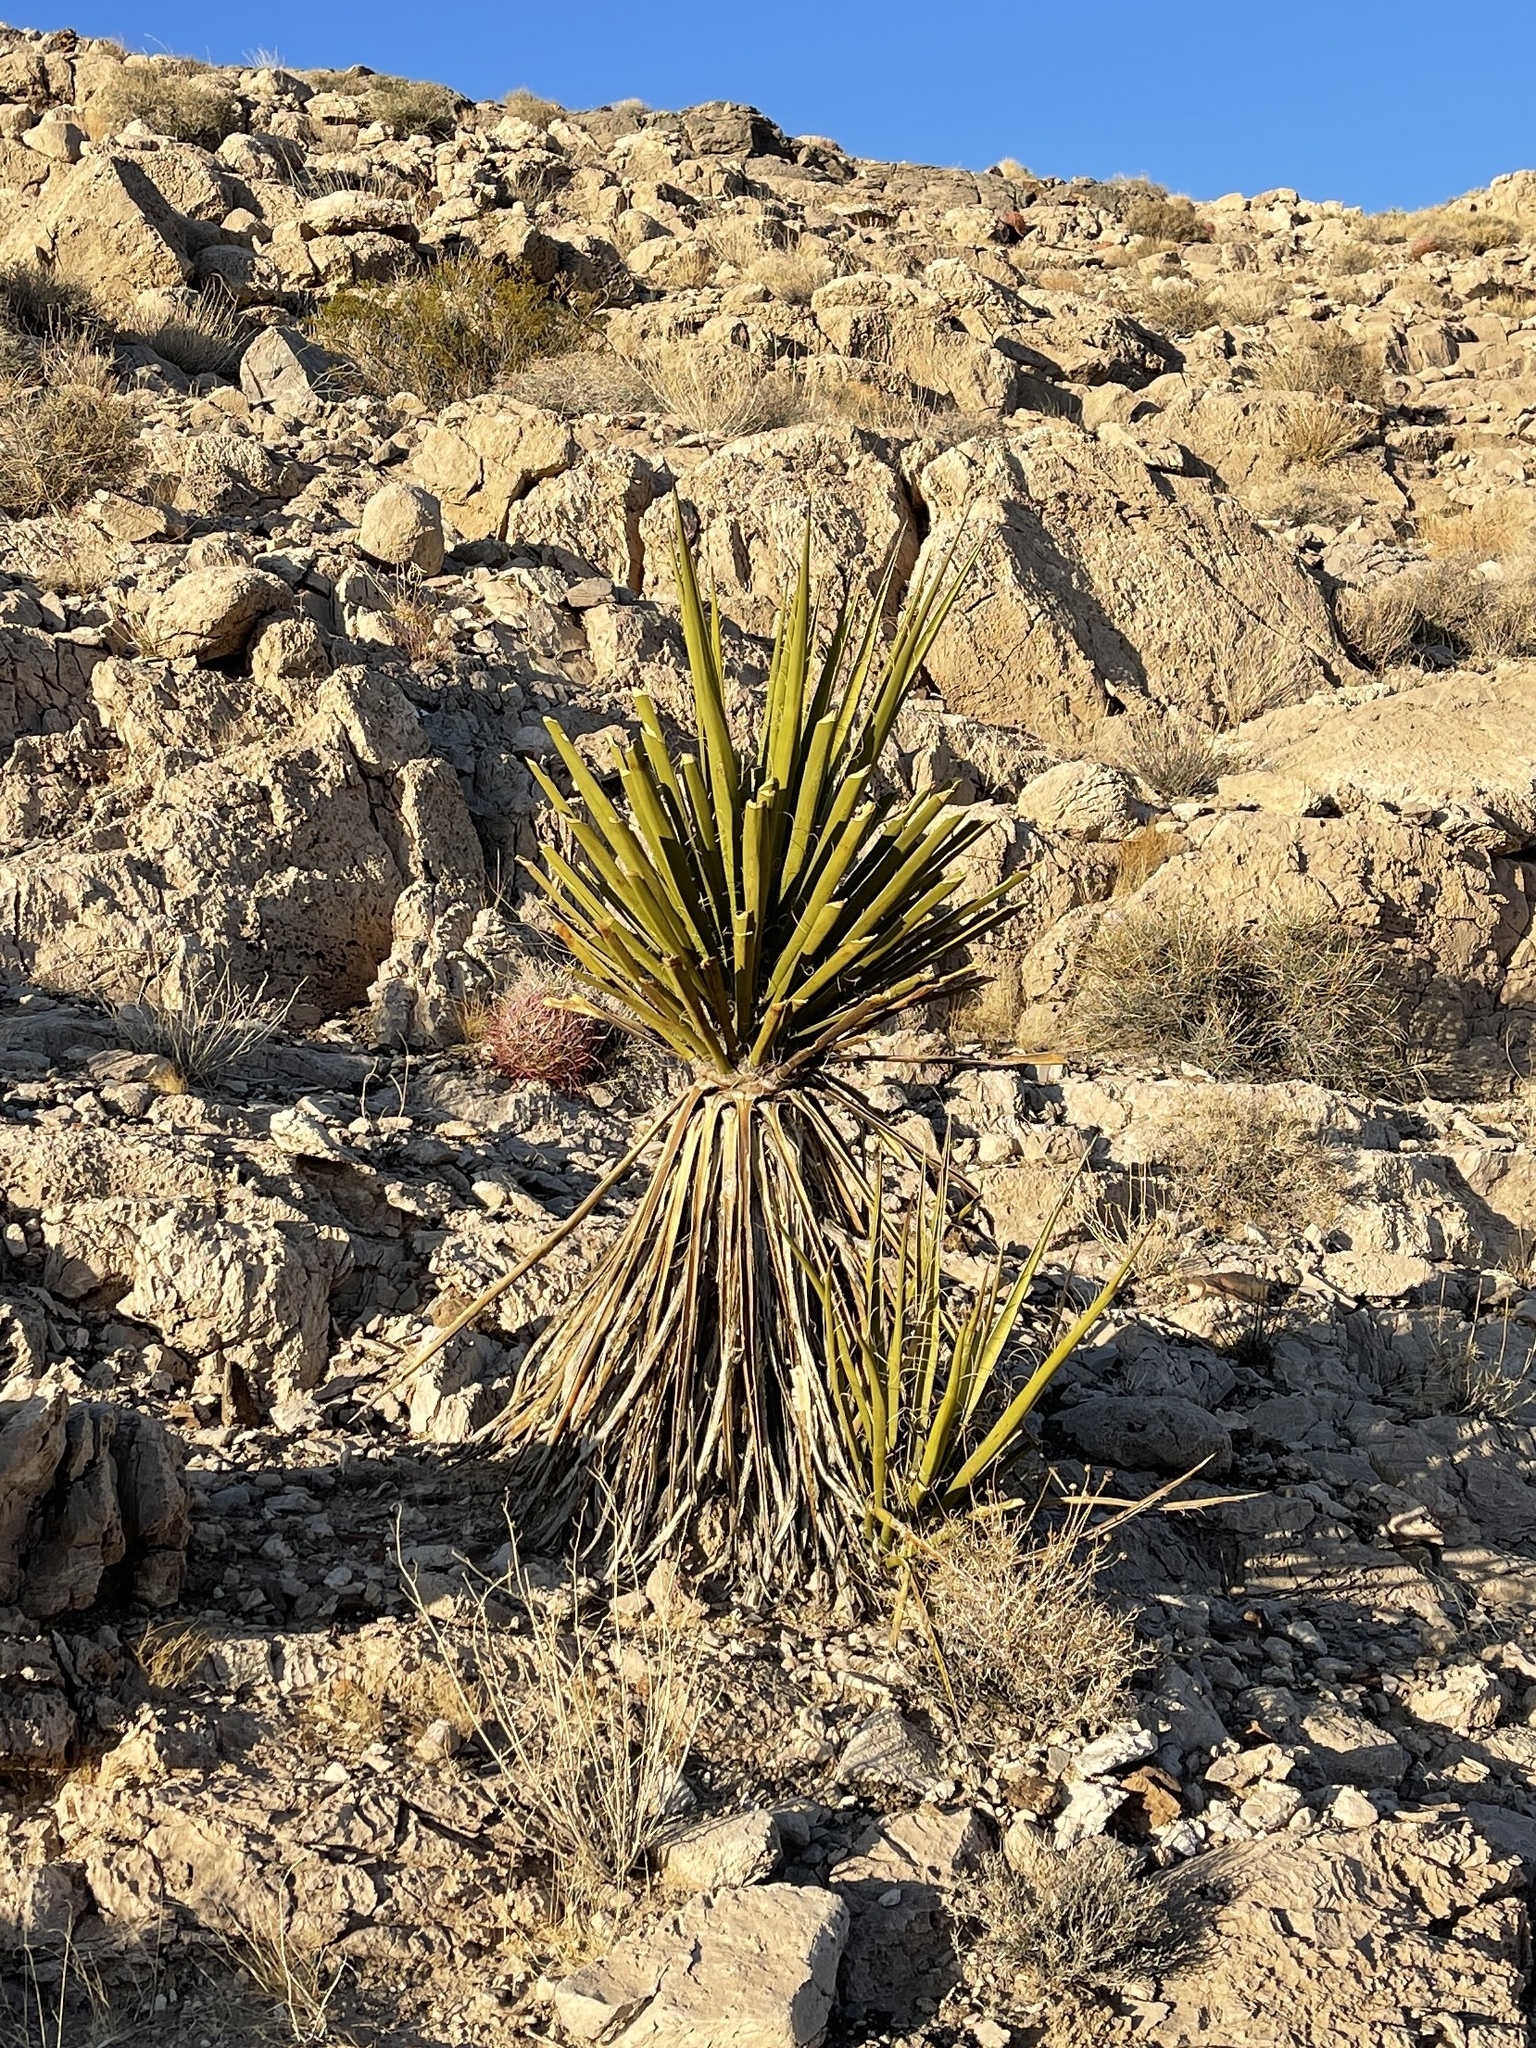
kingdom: Plantae
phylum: Tracheophyta
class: Liliopsida
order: Asparagales
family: Asparagaceae
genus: Yucca
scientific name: Yucca schidigera
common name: Mojave yucca
